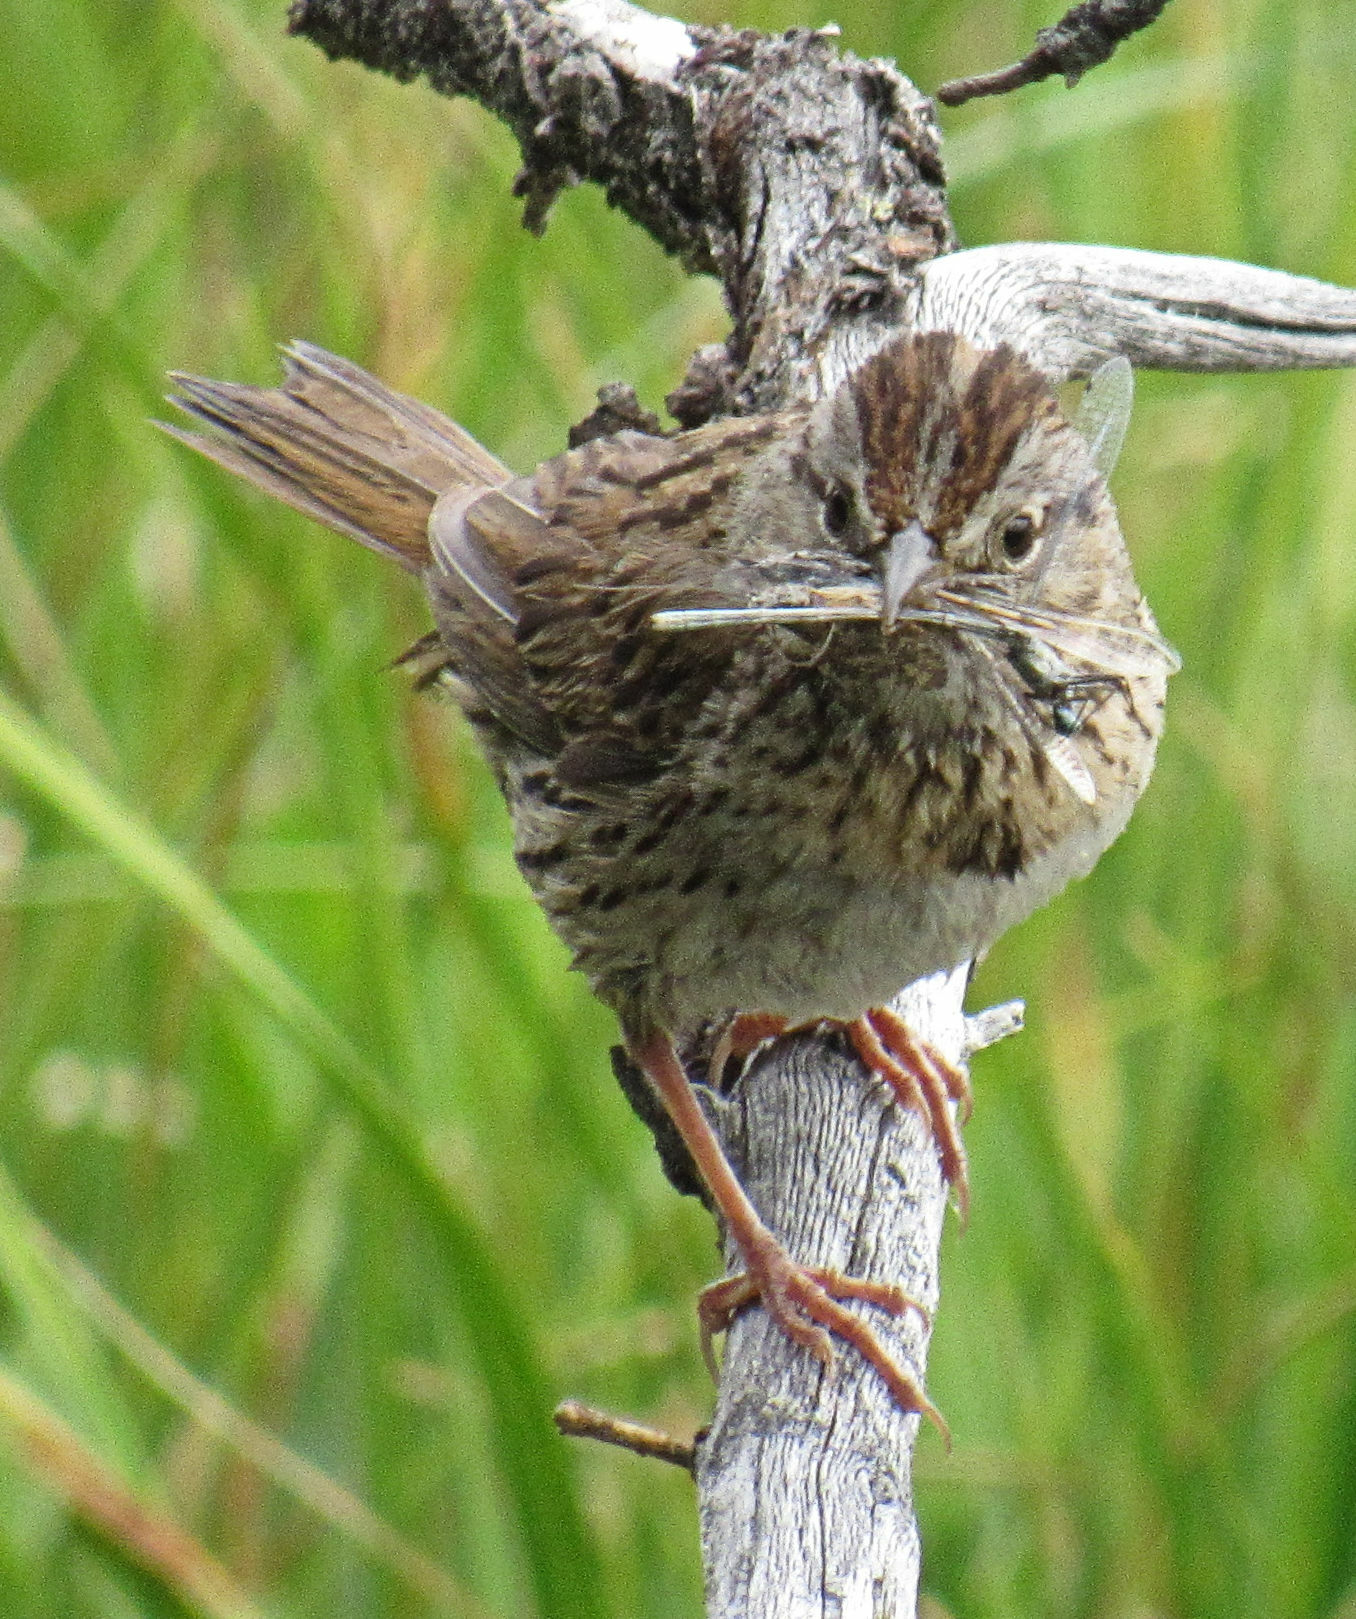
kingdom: Animalia
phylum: Chordata
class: Aves
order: Passeriformes
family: Passerellidae
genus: Melospiza
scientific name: Melospiza lincolnii
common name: Lincoln's sparrow
